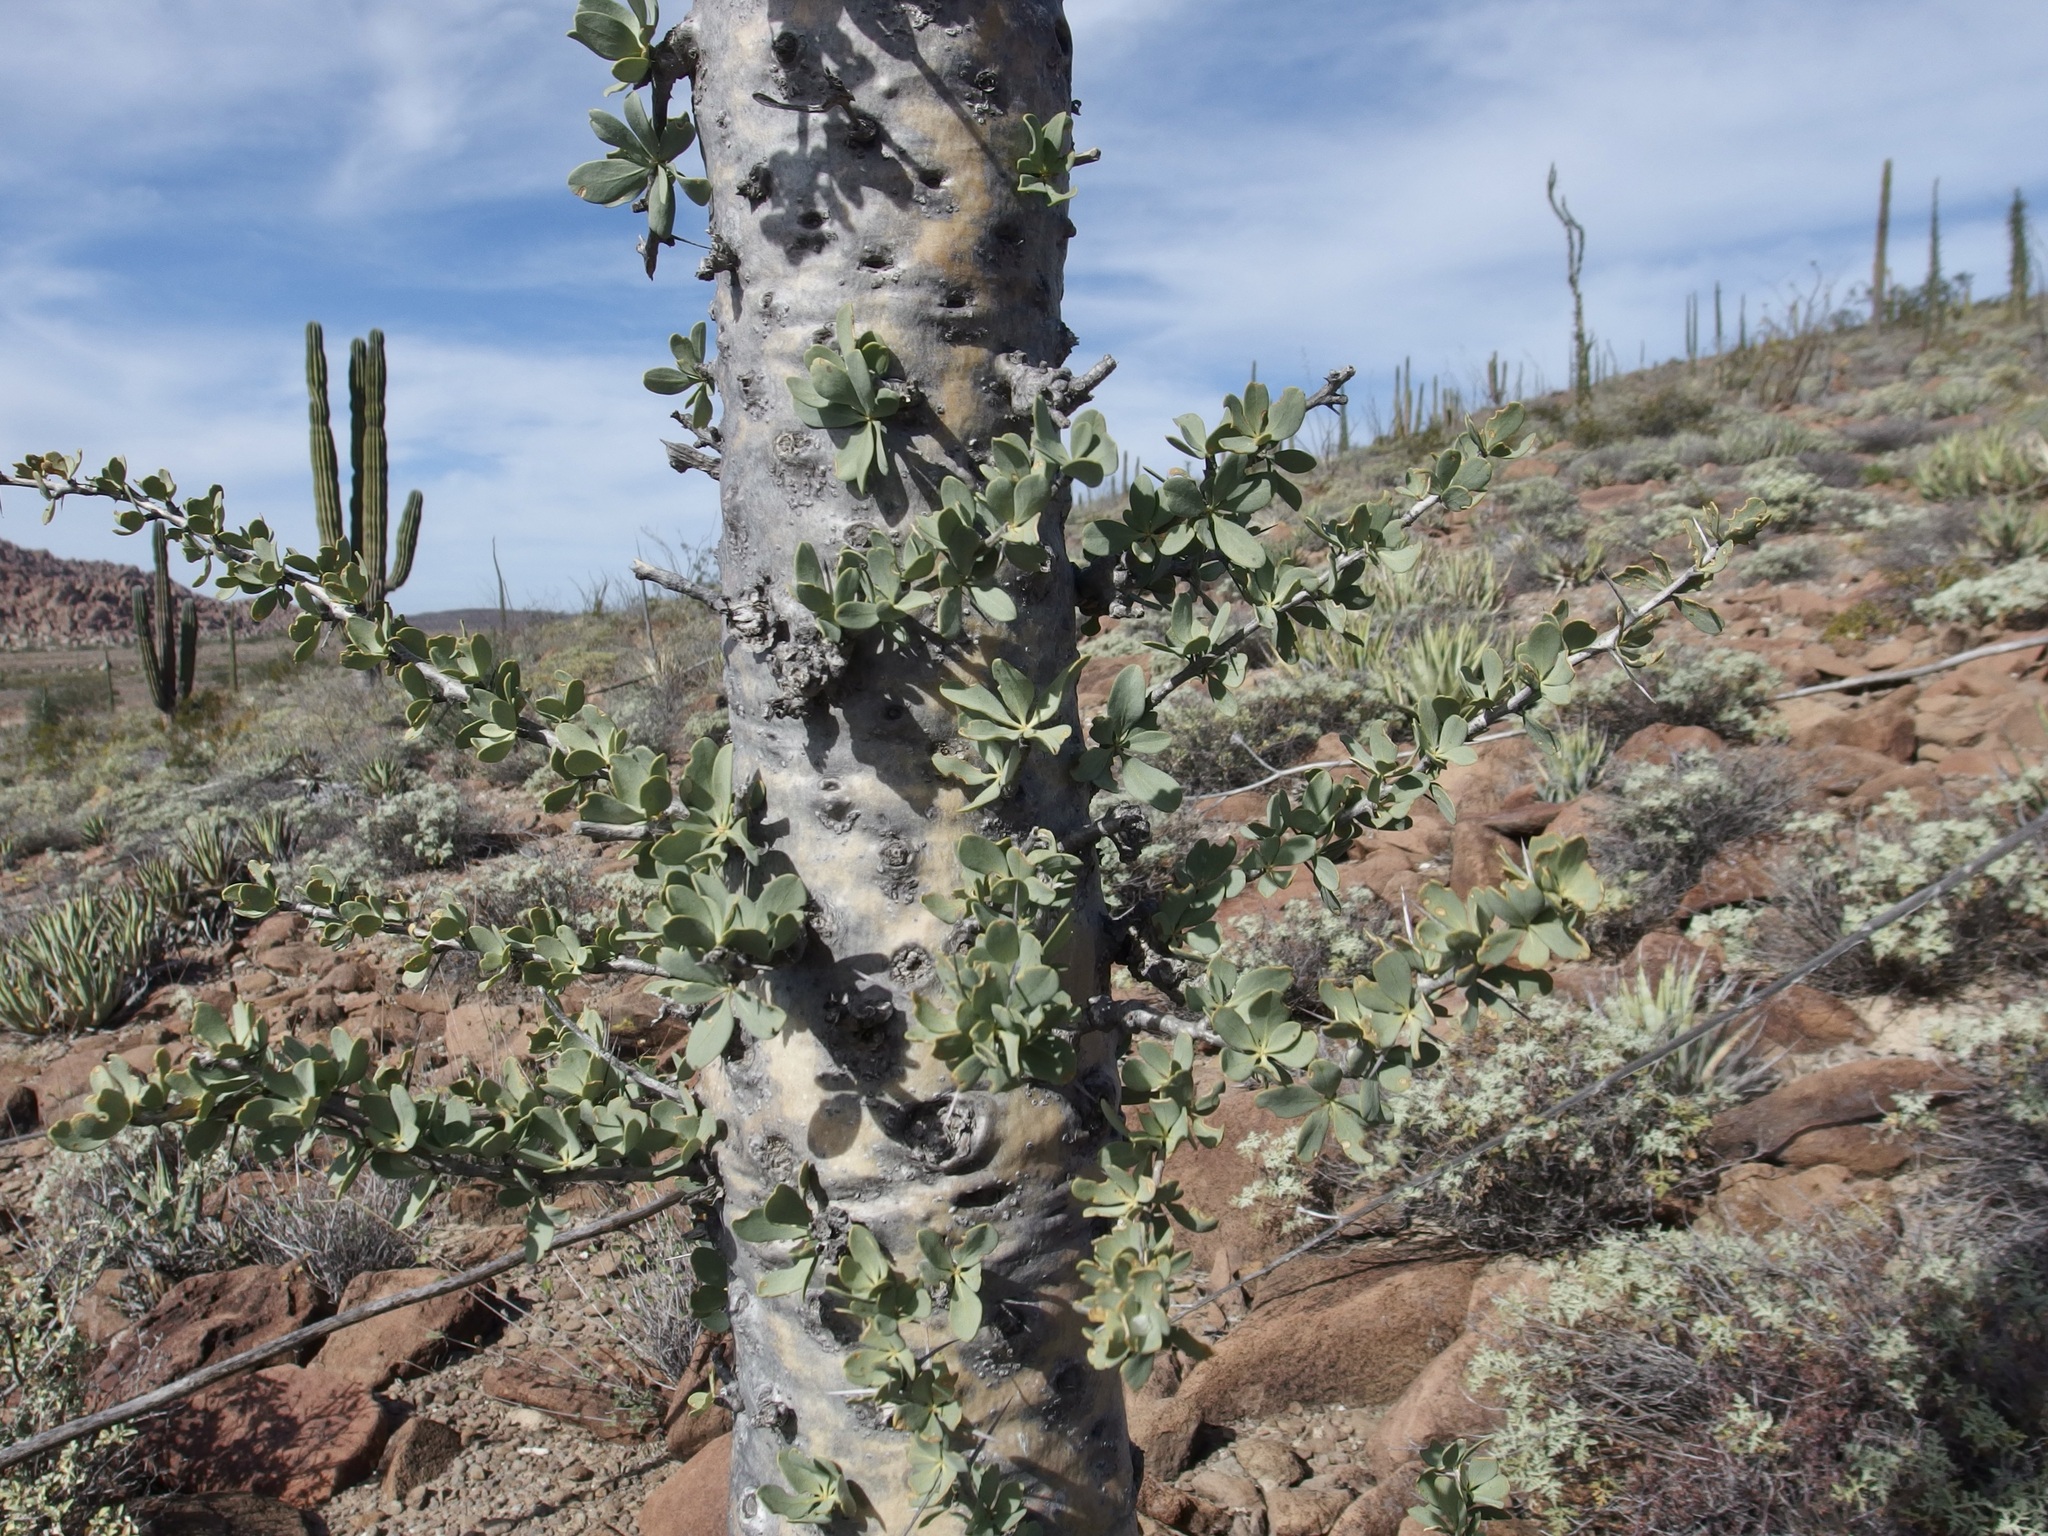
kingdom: Plantae
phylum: Tracheophyta
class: Magnoliopsida
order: Ericales
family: Fouquieriaceae
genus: Fouquieria
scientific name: Fouquieria columnaris
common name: Boojumtree
